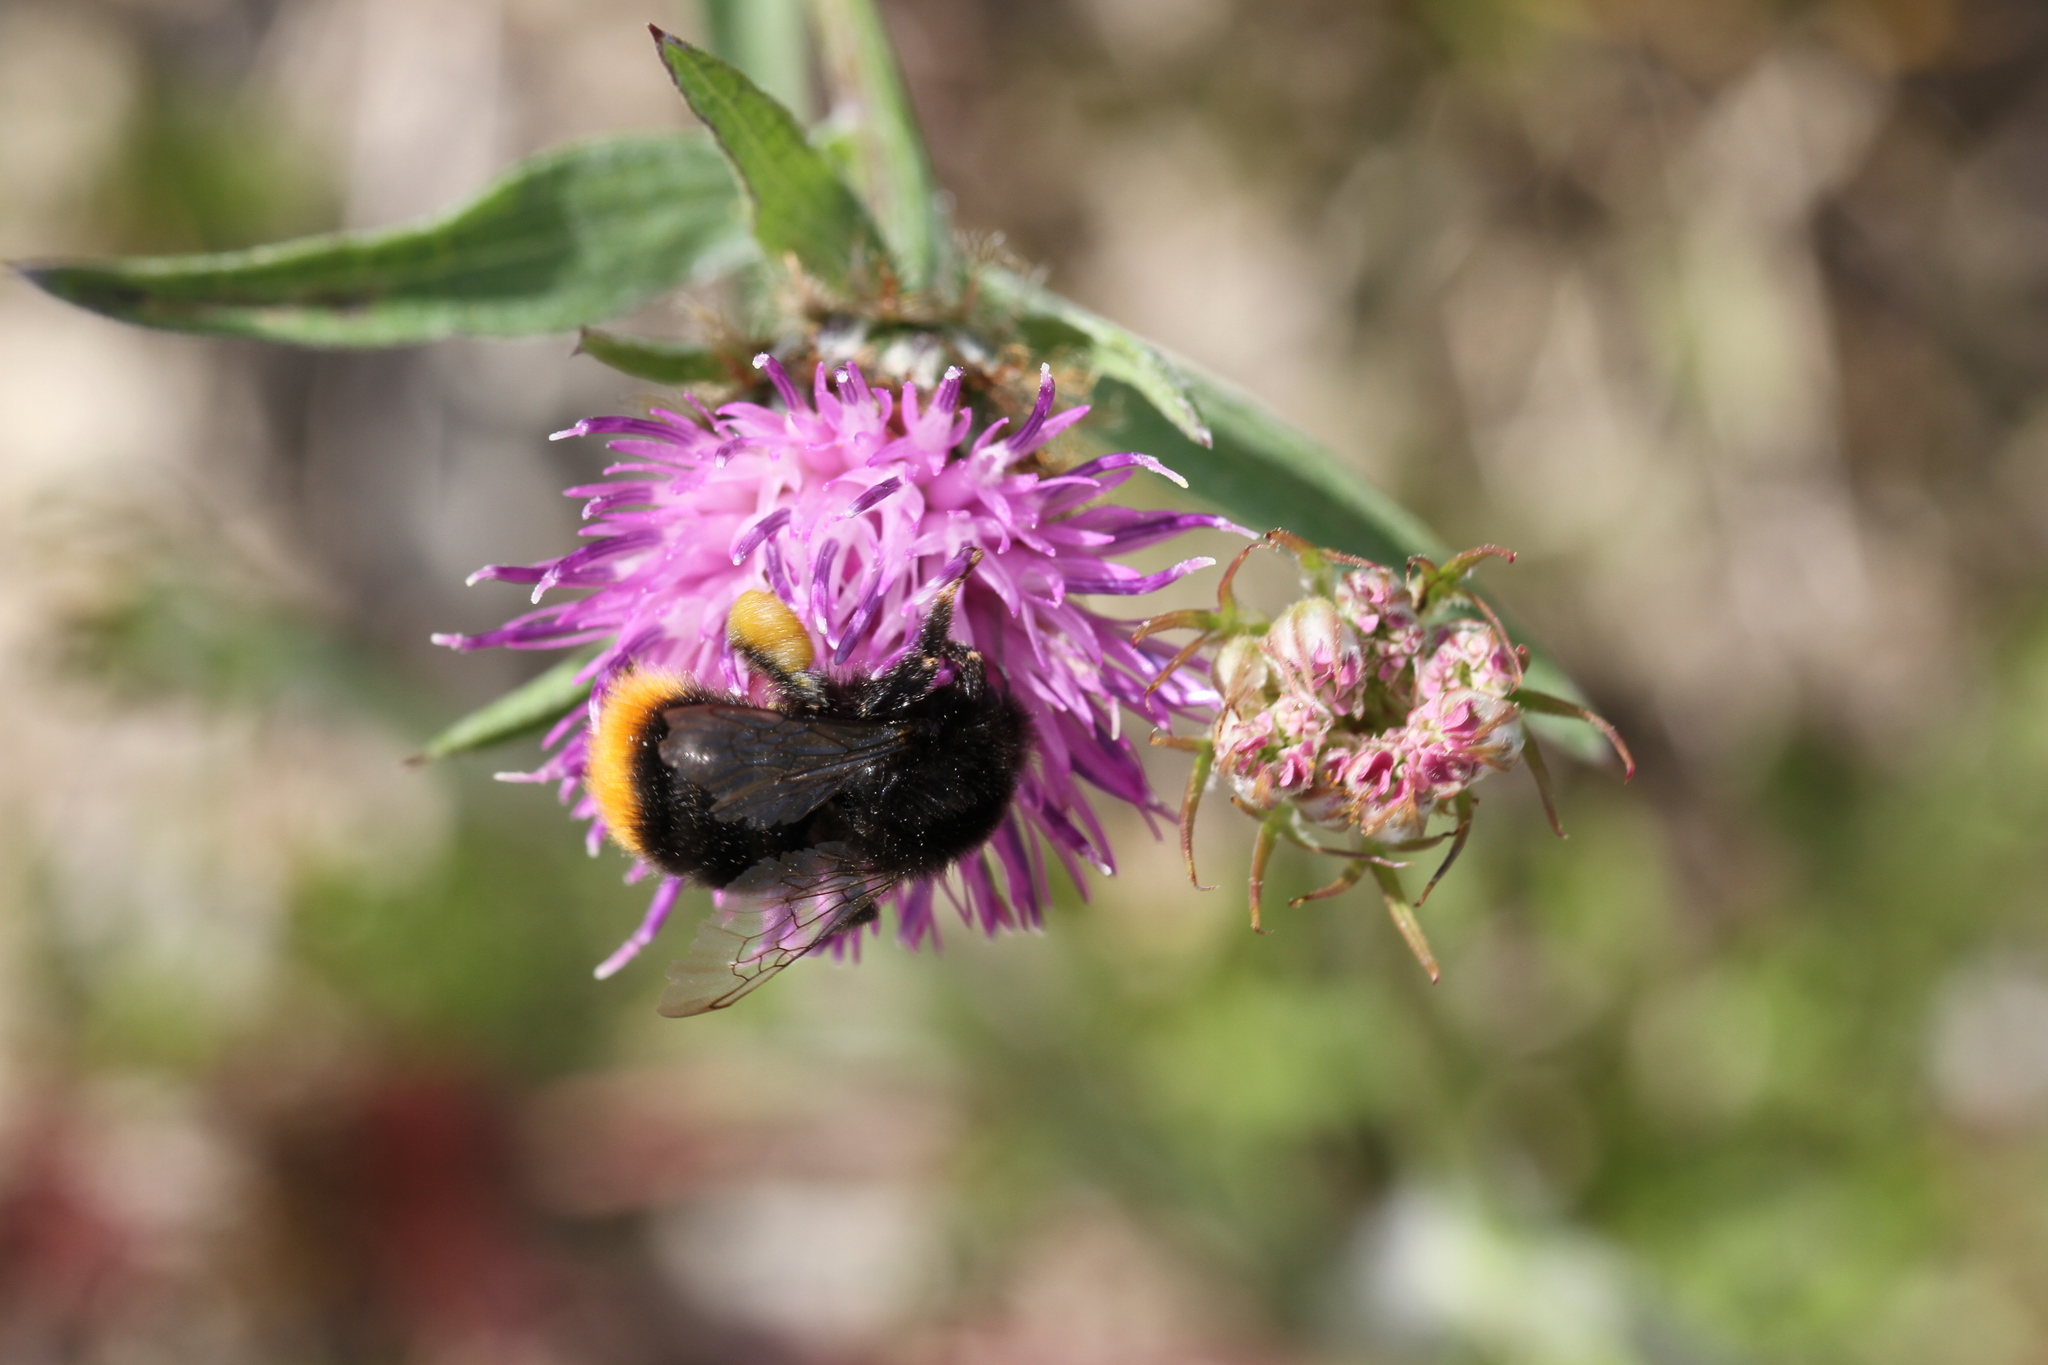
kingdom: Animalia
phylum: Arthropoda
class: Insecta
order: Hymenoptera
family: Apidae
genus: Bombus
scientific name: Bombus lapidarius
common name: Large red-tailed humble-bee
